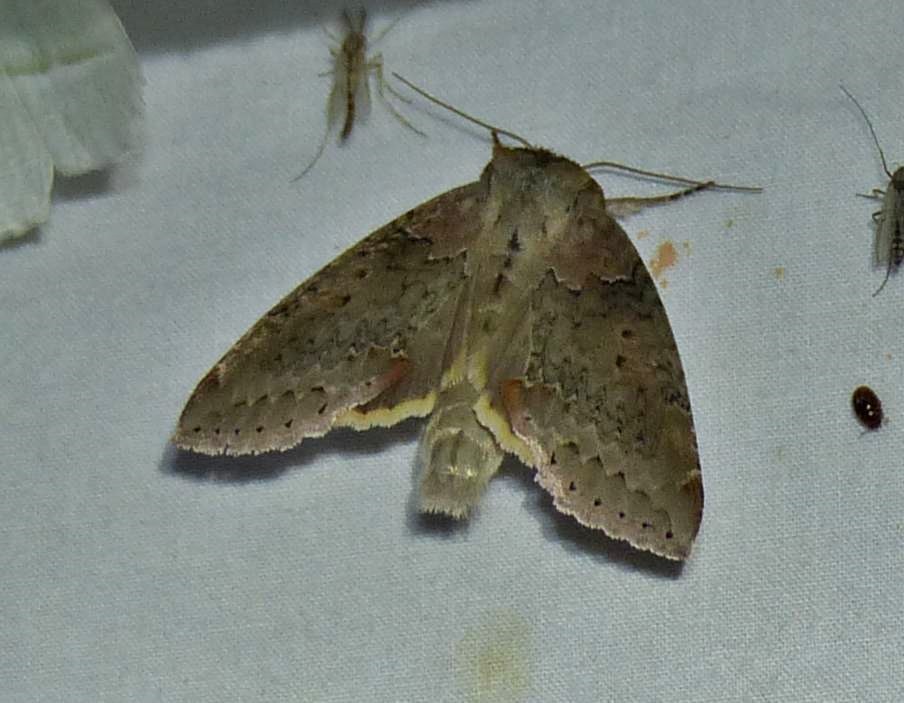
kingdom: Animalia
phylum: Arthropoda
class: Insecta
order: Lepidoptera
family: Drepanidae
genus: Pseudothyatira
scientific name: Pseudothyatira cymatophoroides
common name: Tufted thyatirid moth
